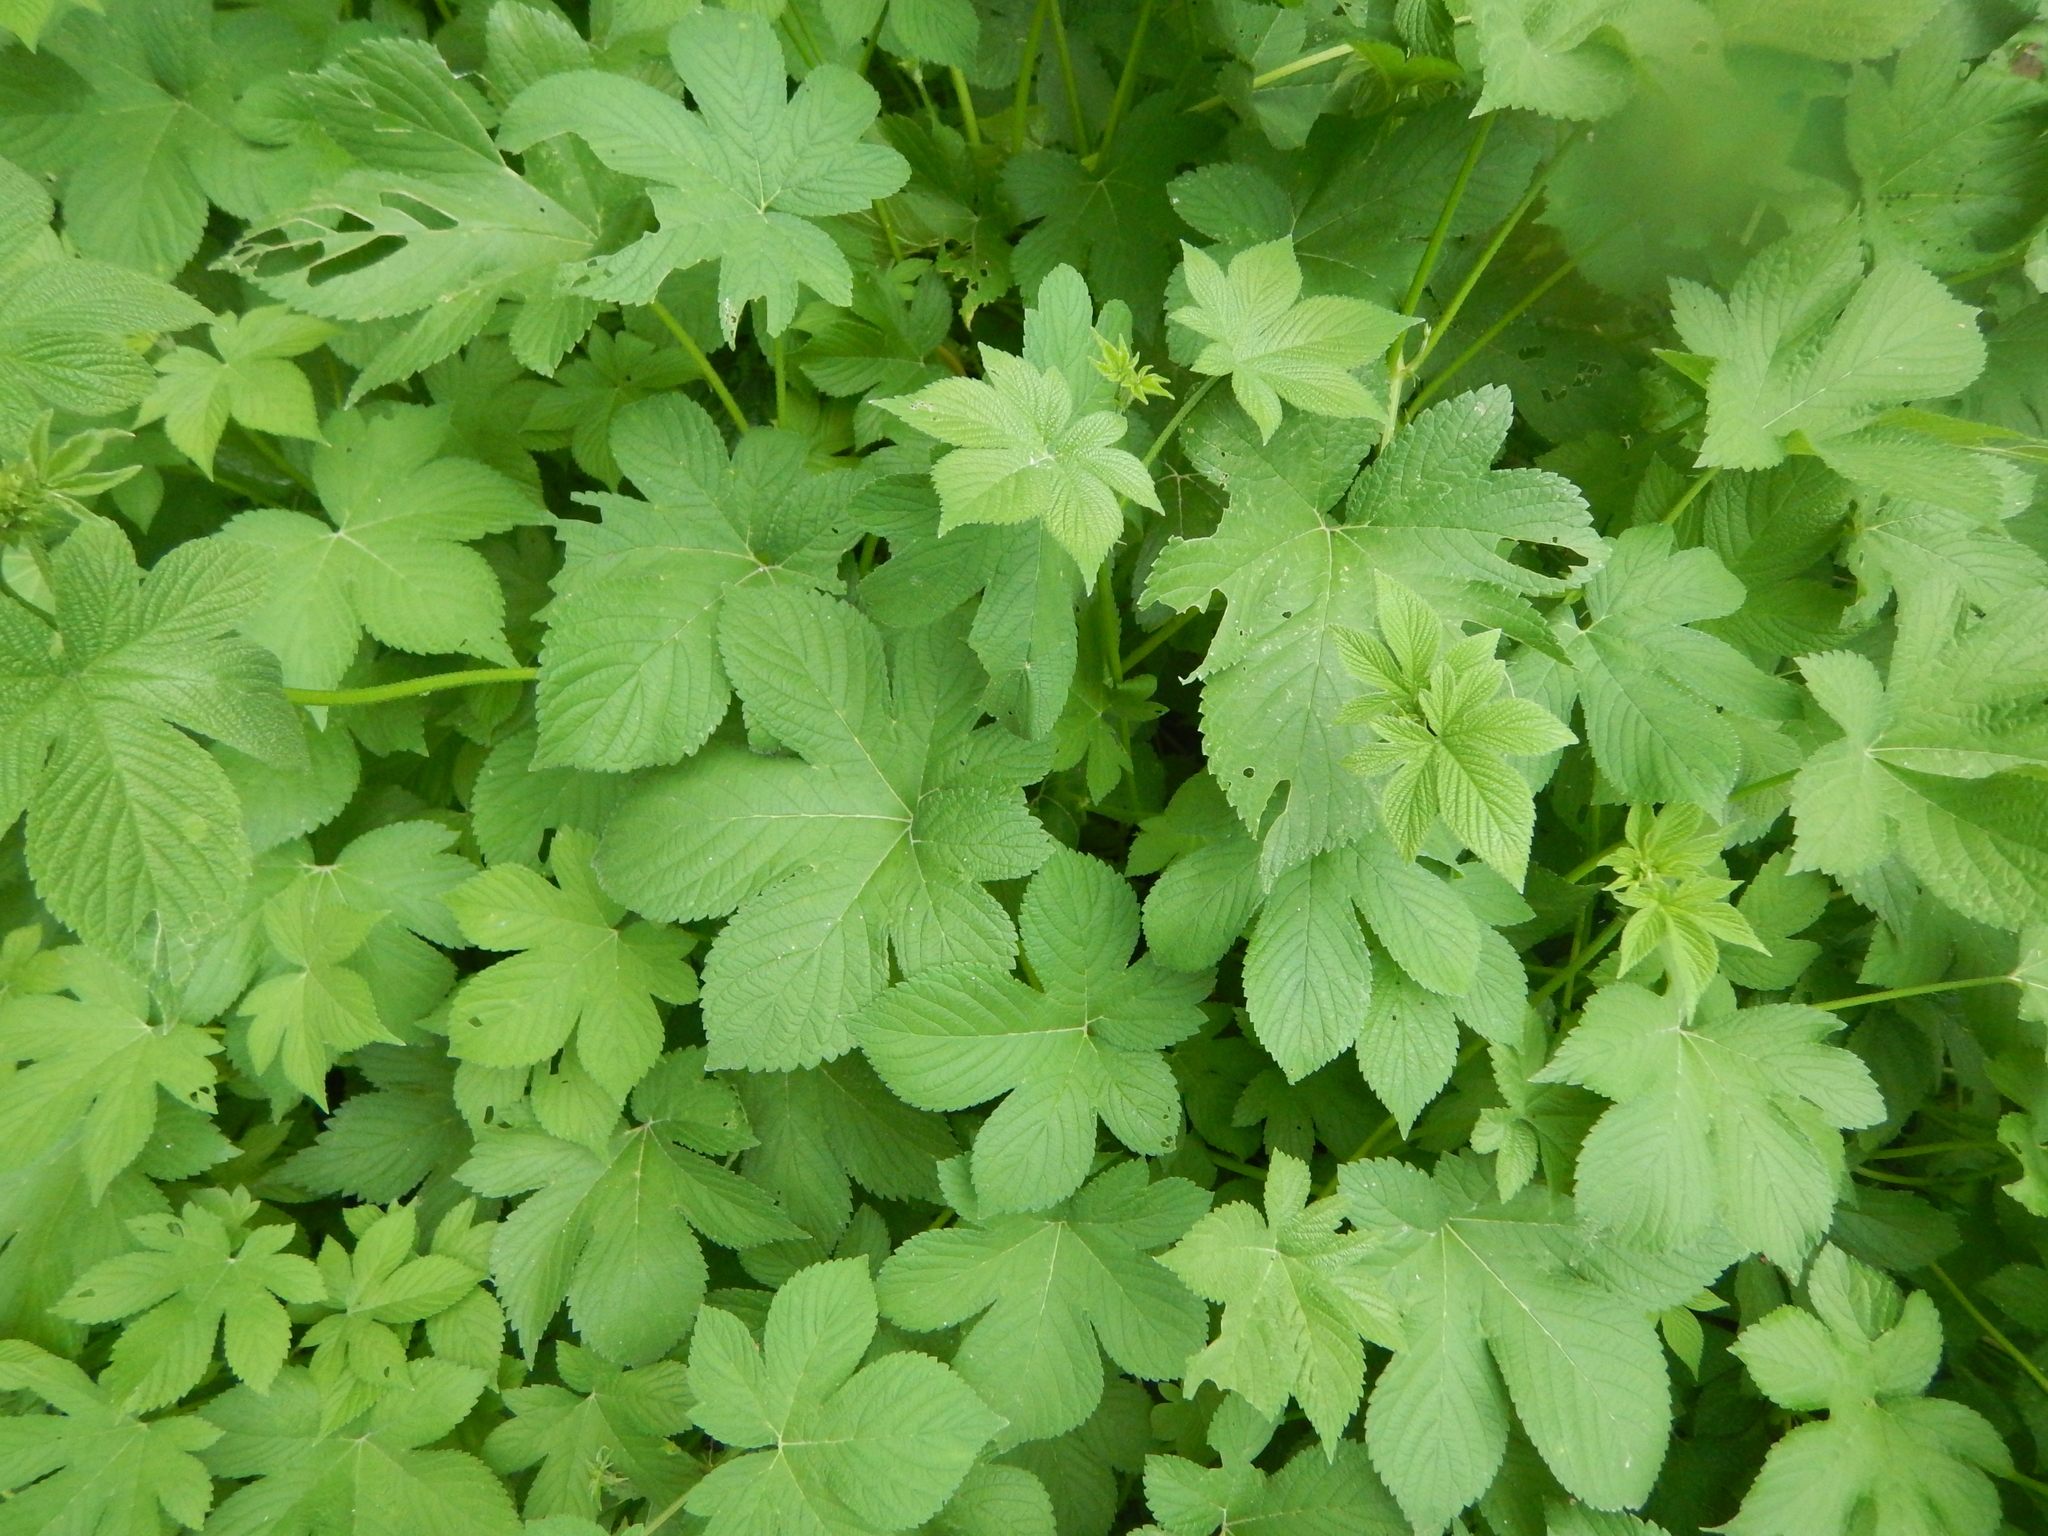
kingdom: Plantae
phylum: Tracheophyta
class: Magnoliopsida
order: Rosales
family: Cannabaceae
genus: Humulus
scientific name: Humulus scandens
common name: Japanese hop
